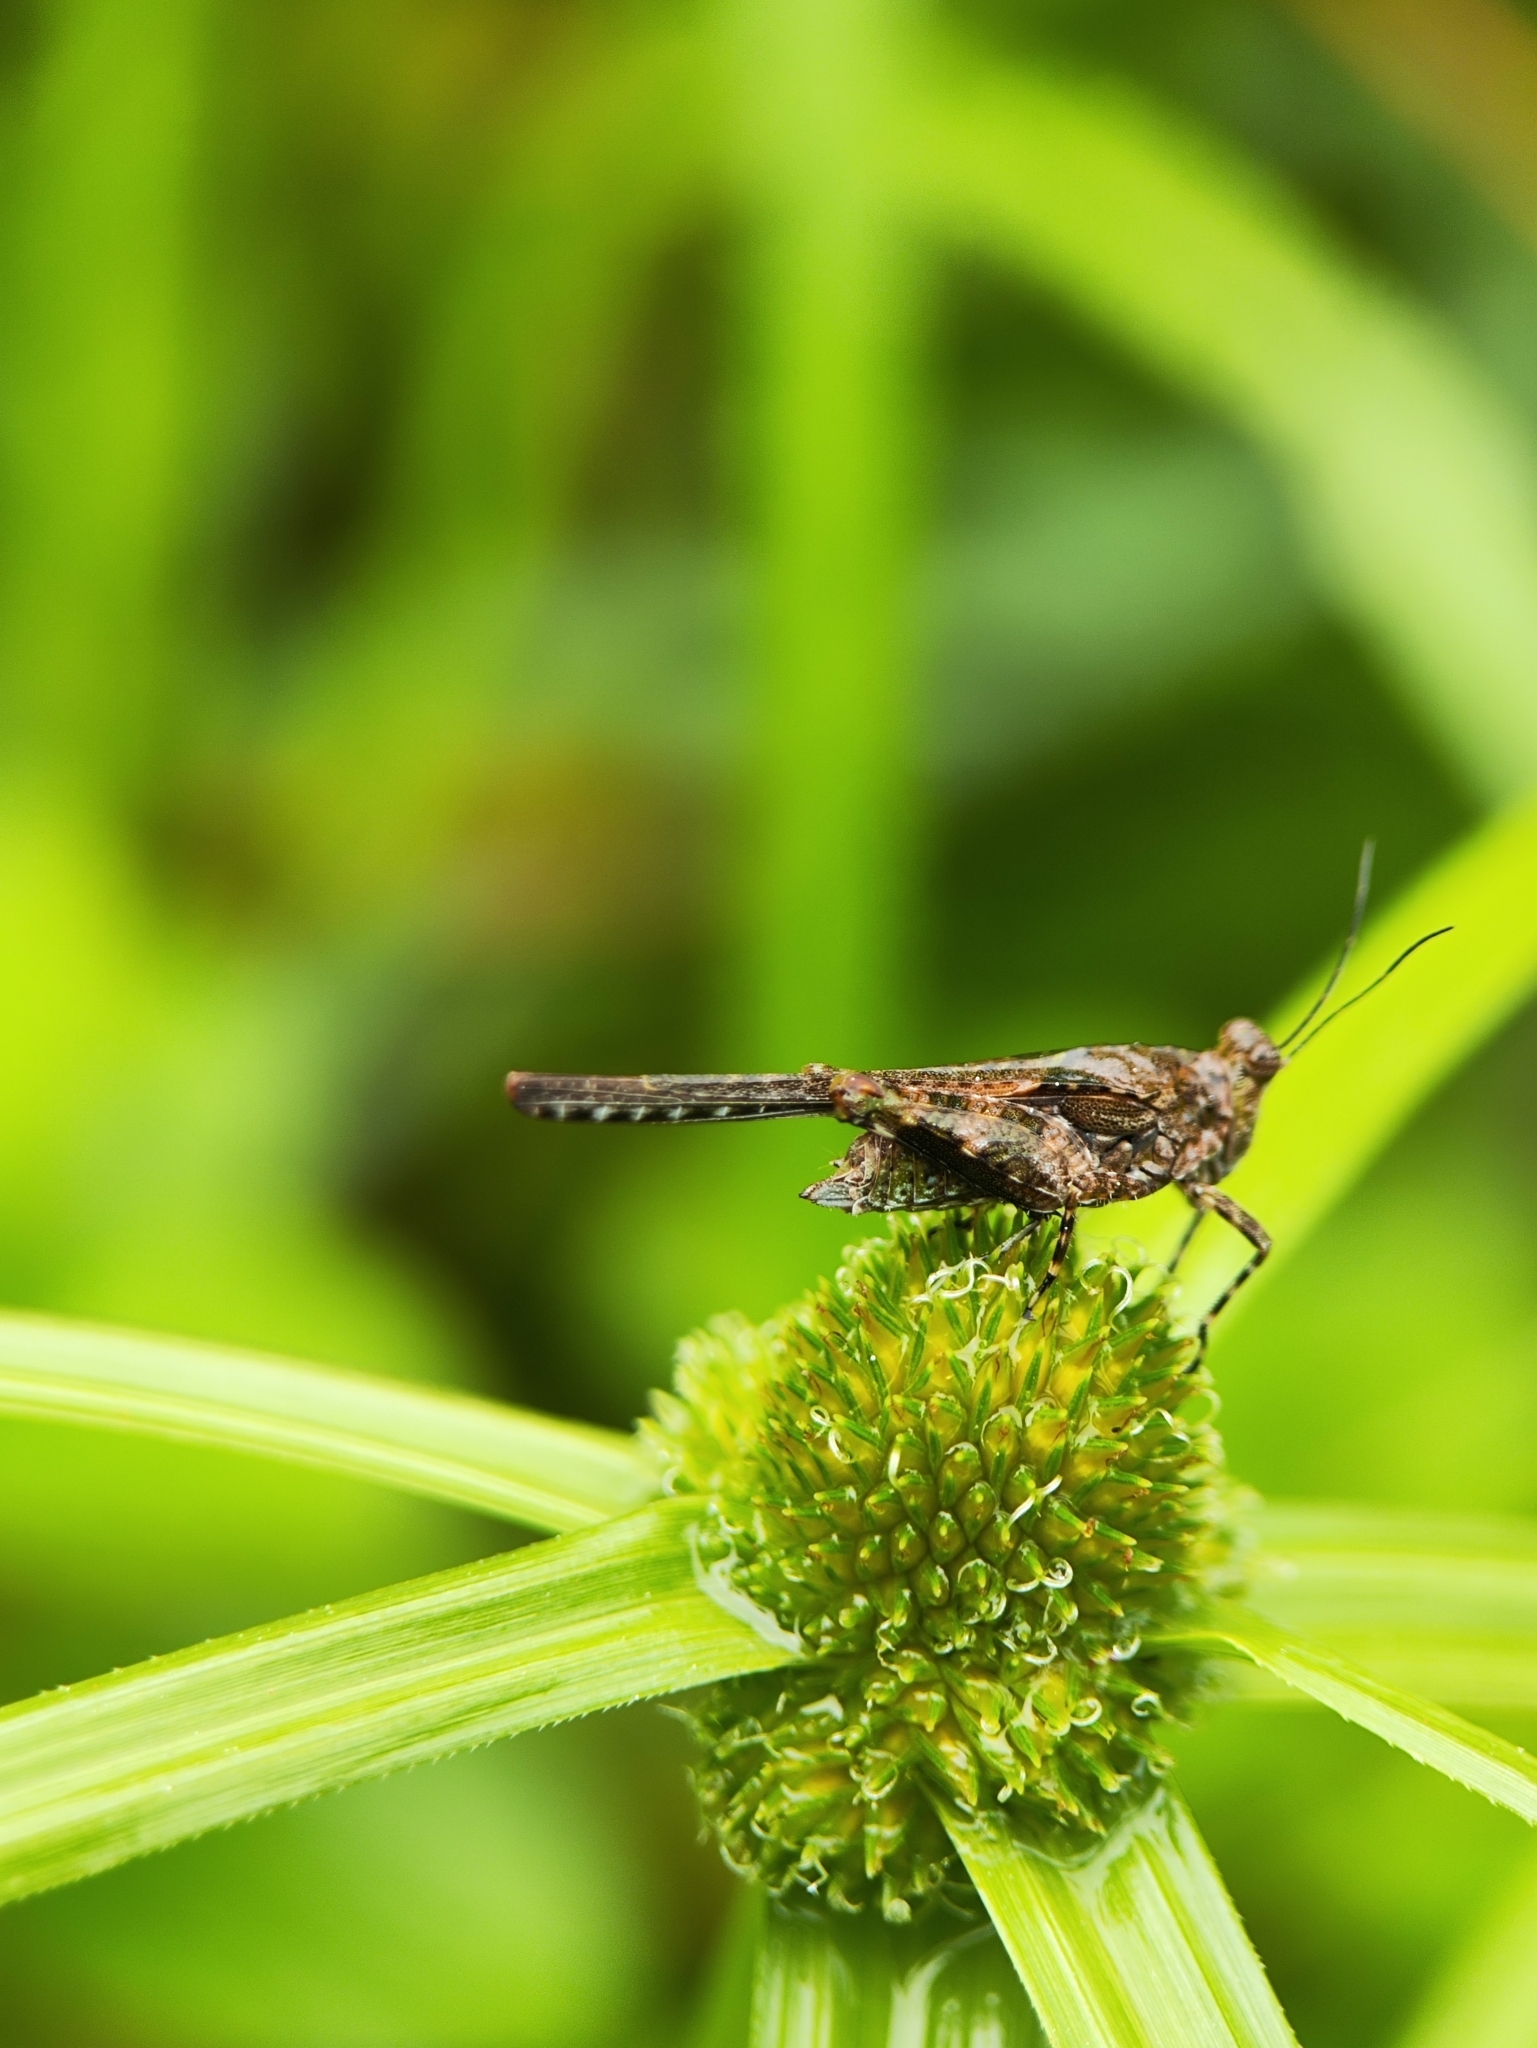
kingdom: Animalia
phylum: Arthropoda
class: Insecta
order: Orthoptera
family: Tetrigidae
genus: Paratettix
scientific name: Paratettix cingalensis
